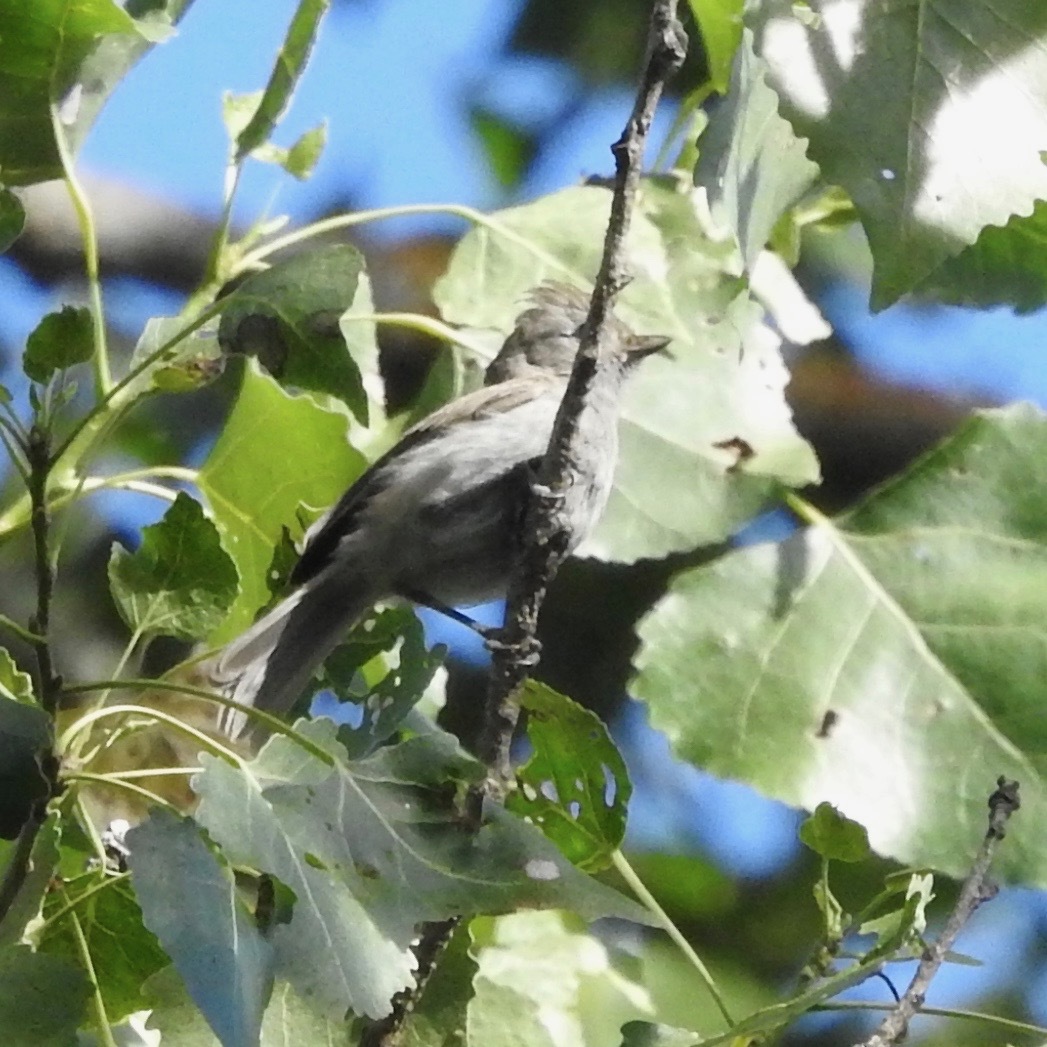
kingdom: Animalia
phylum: Chordata
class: Aves
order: Passeriformes
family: Paridae
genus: Baeolophus
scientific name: Baeolophus inornatus
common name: Oak titmouse
